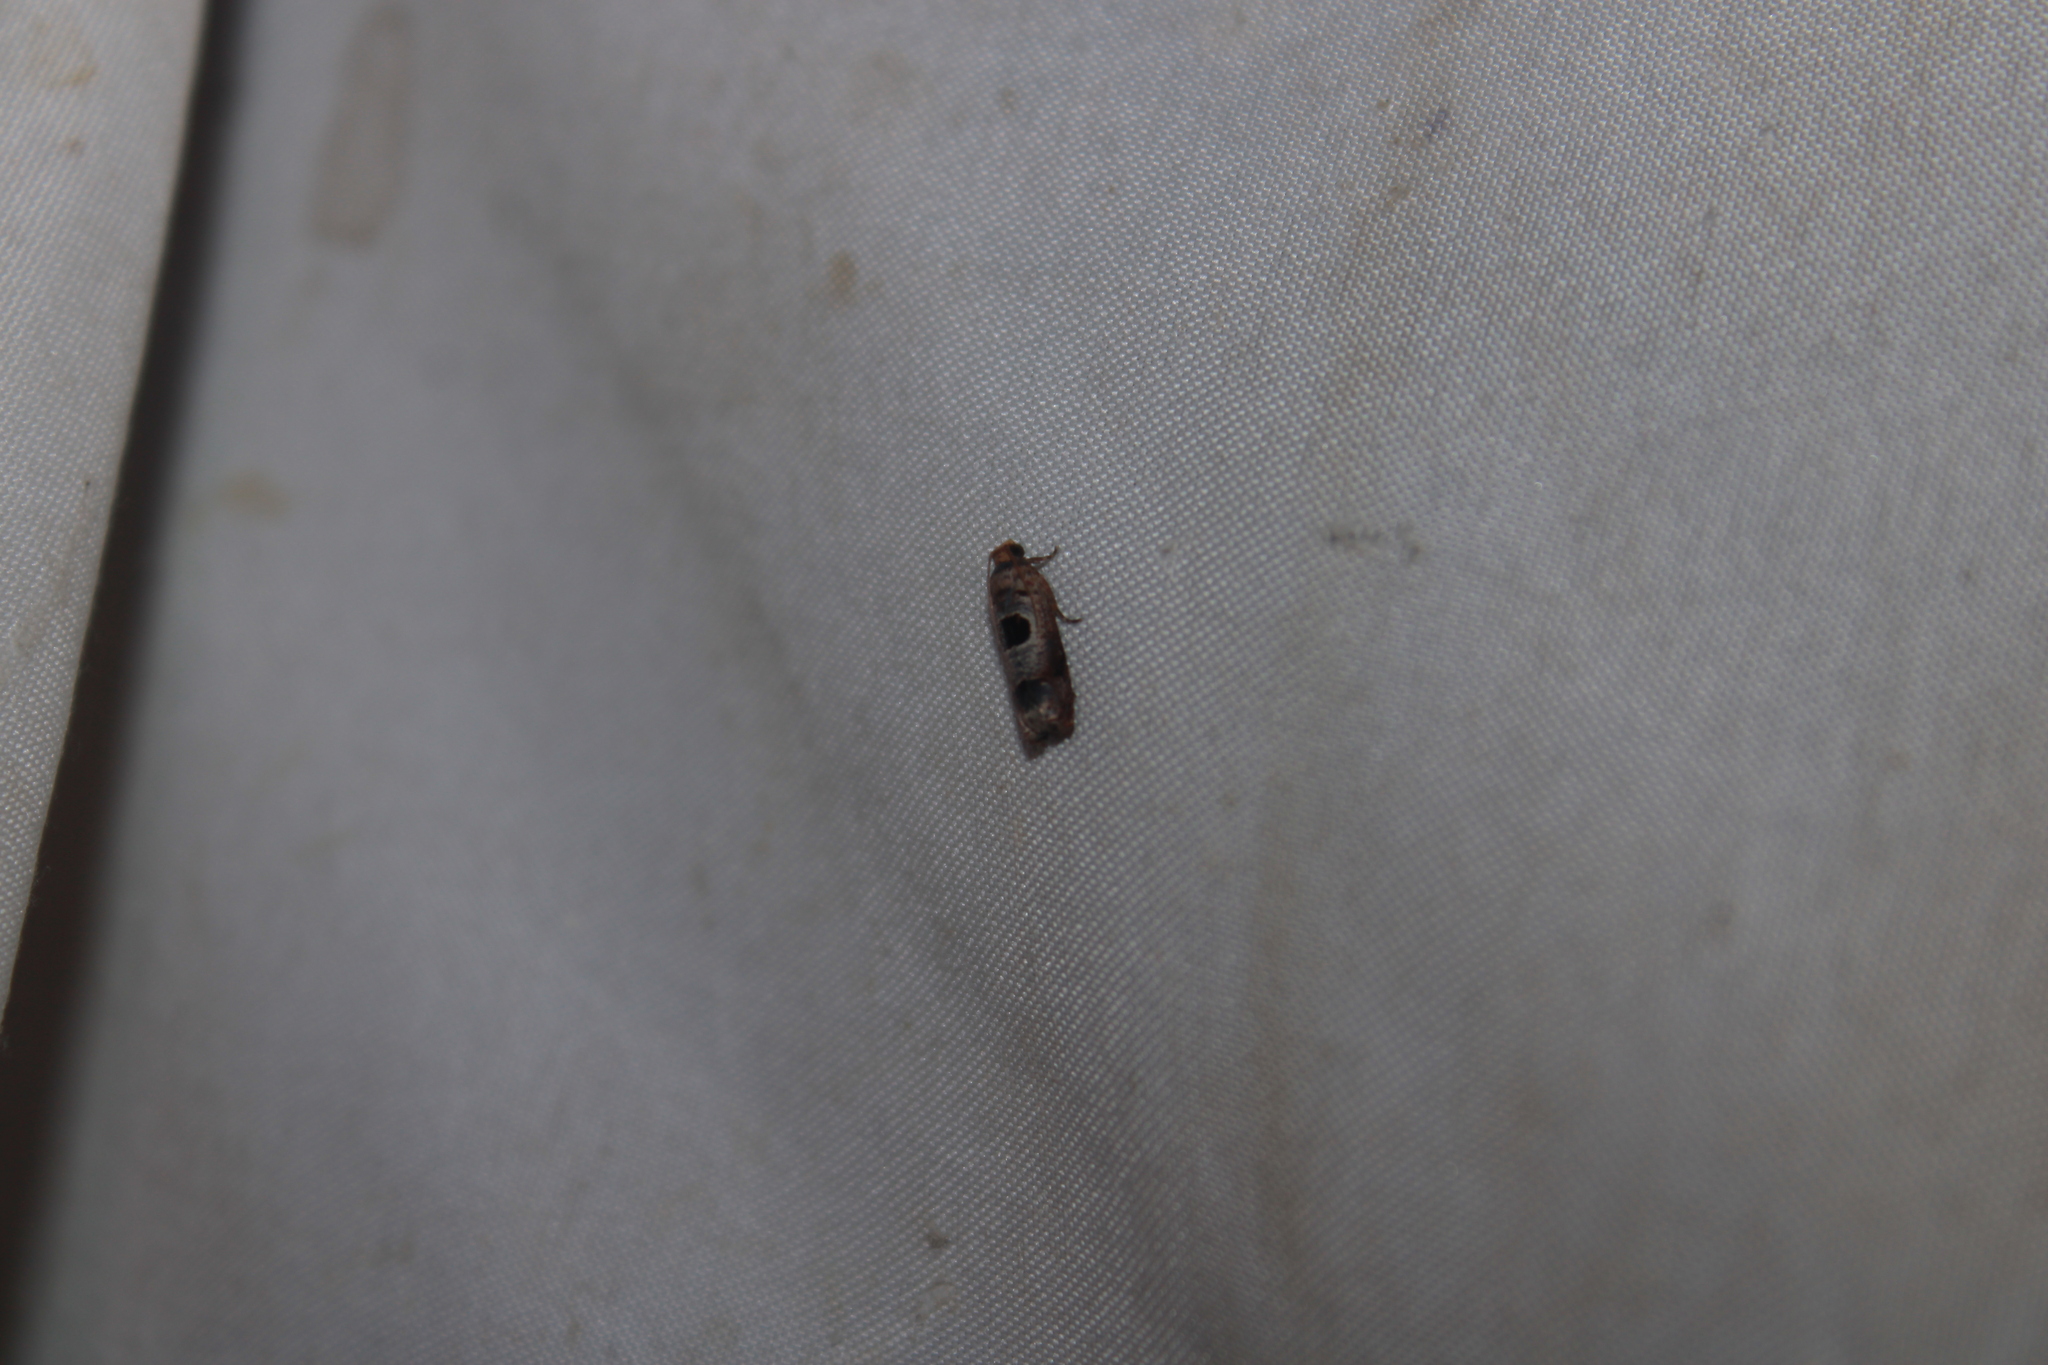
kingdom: Animalia
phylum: Arthropoda
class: Insecta
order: Lepidoptera
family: Tortricidae
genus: Episimus
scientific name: Episimus augmentana
